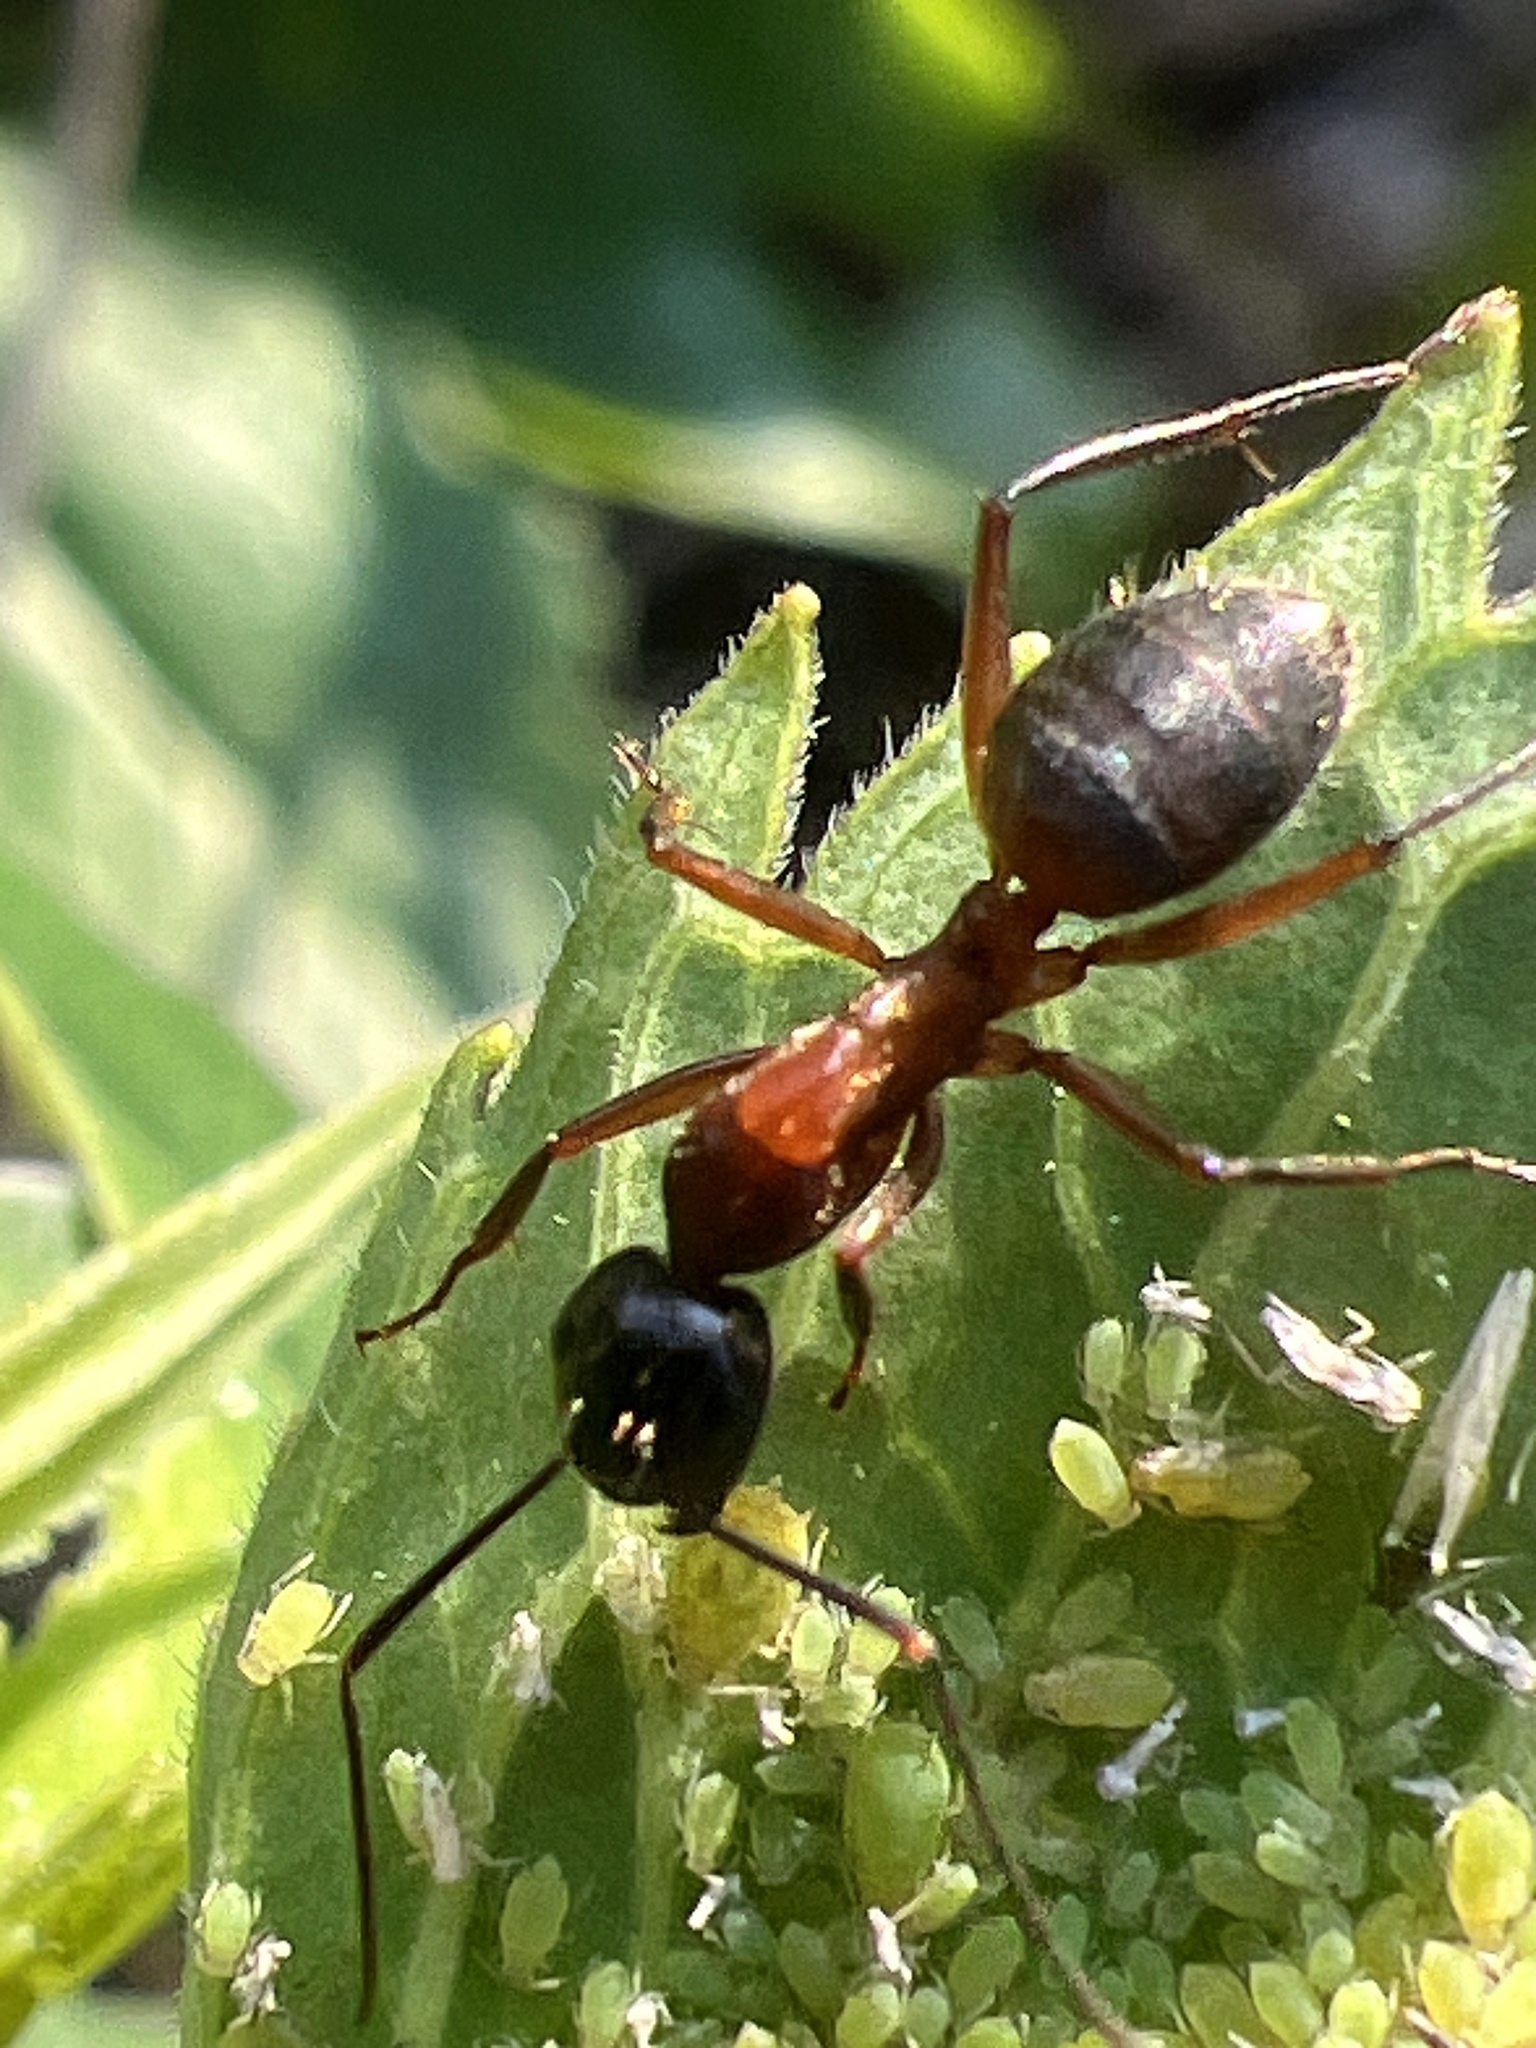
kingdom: Animalia
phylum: Arthropoda
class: Insecta
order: Hymenoptera
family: Formicidae
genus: Camponotus
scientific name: Camponotus chromaiodes
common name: Red carpenter ant
